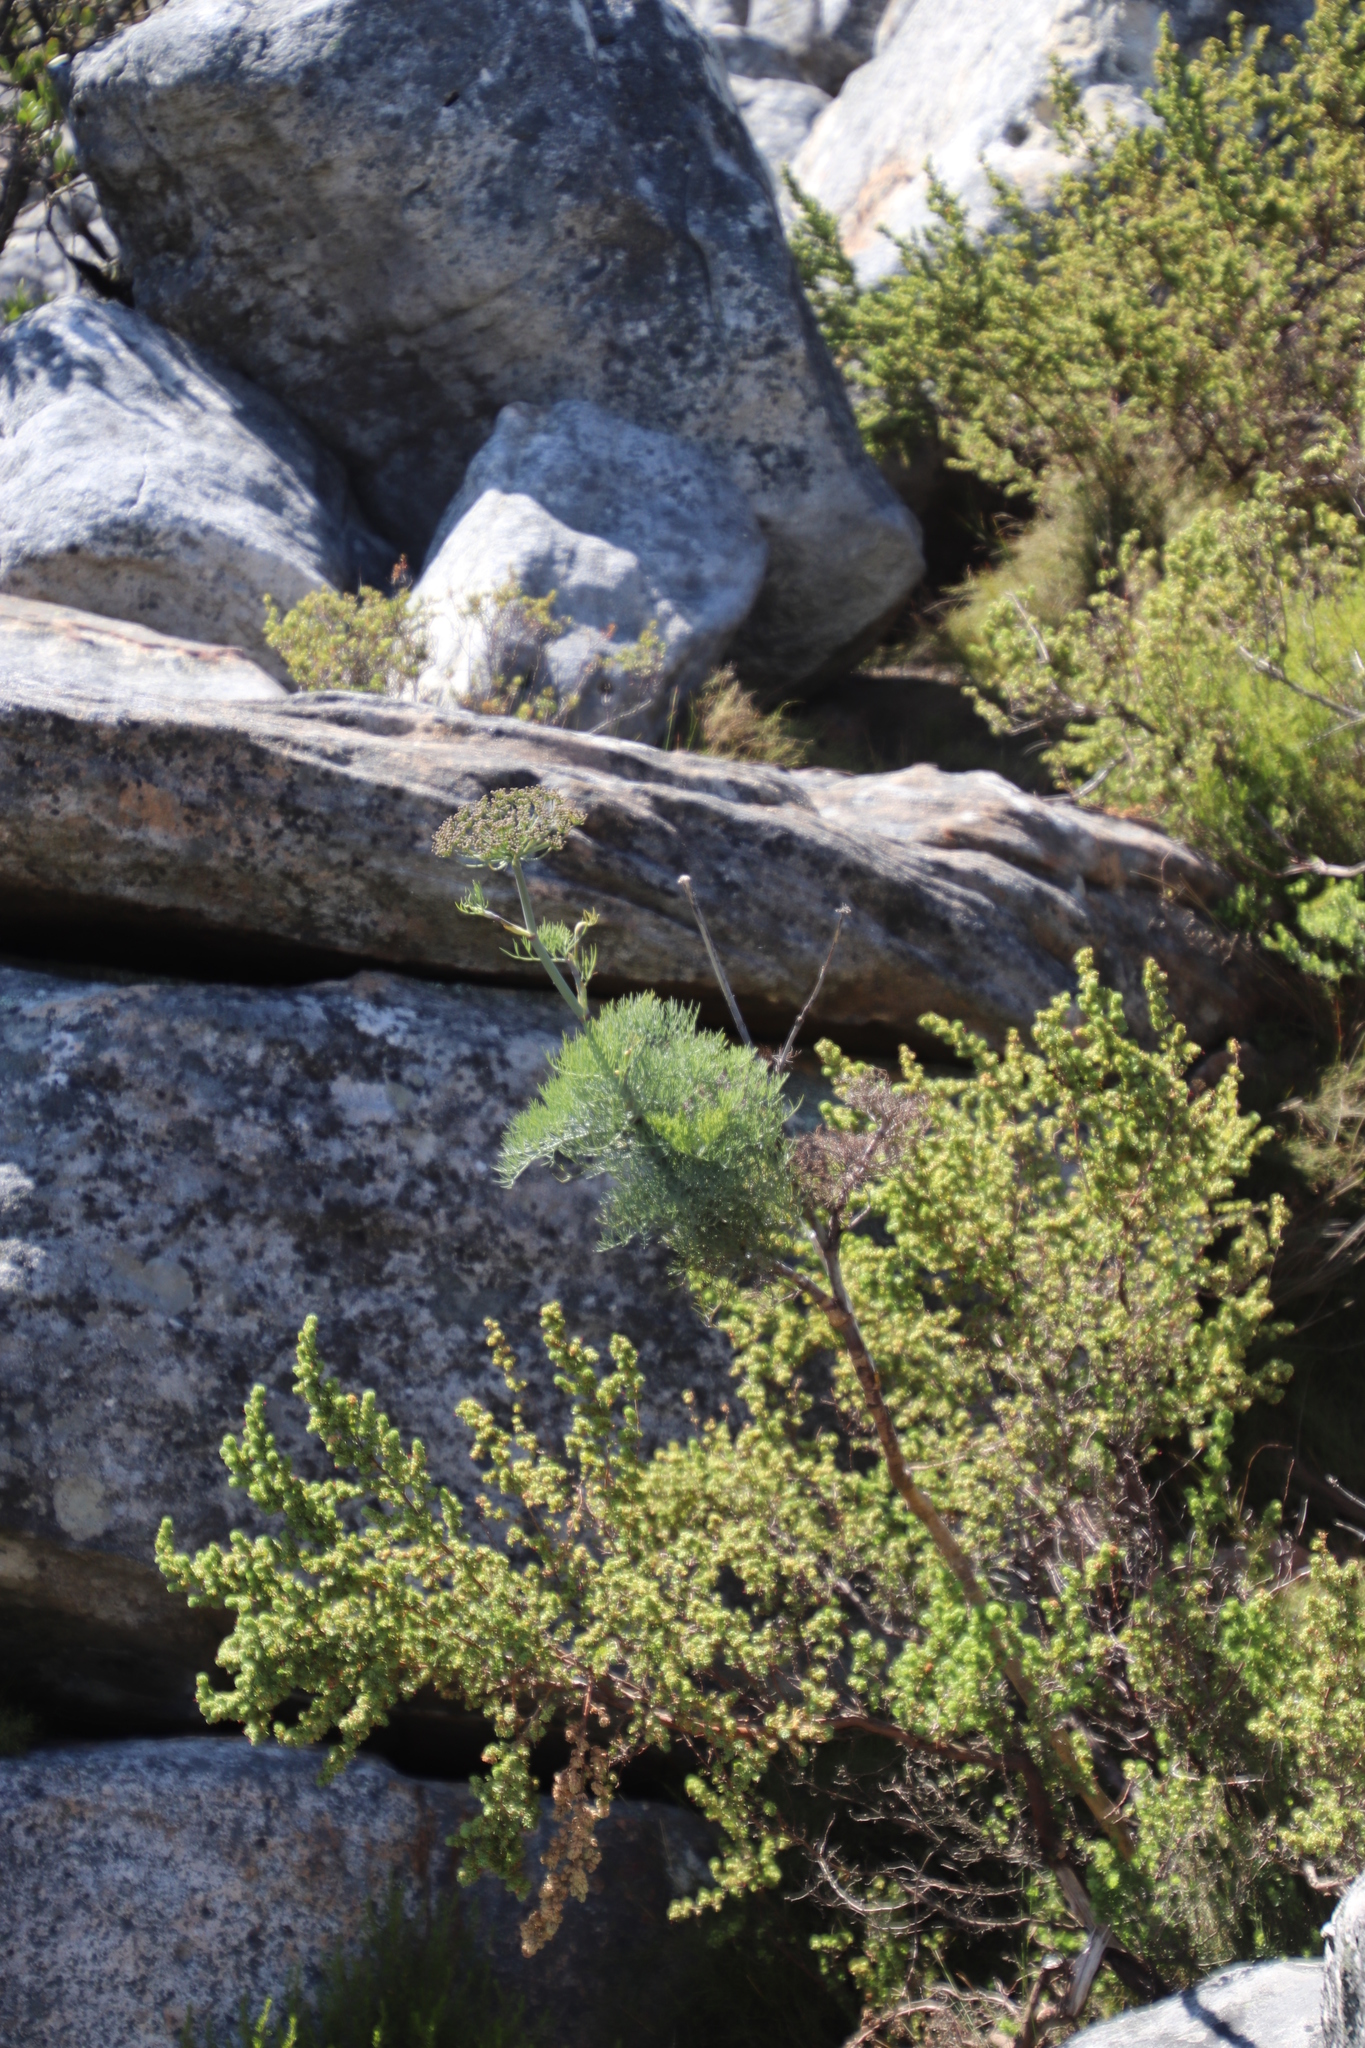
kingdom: Plantae
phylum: Tracheophyta
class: Magnoliopsida
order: Apiales
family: Apiaceae
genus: Notobubon
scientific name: Notobubon capense
